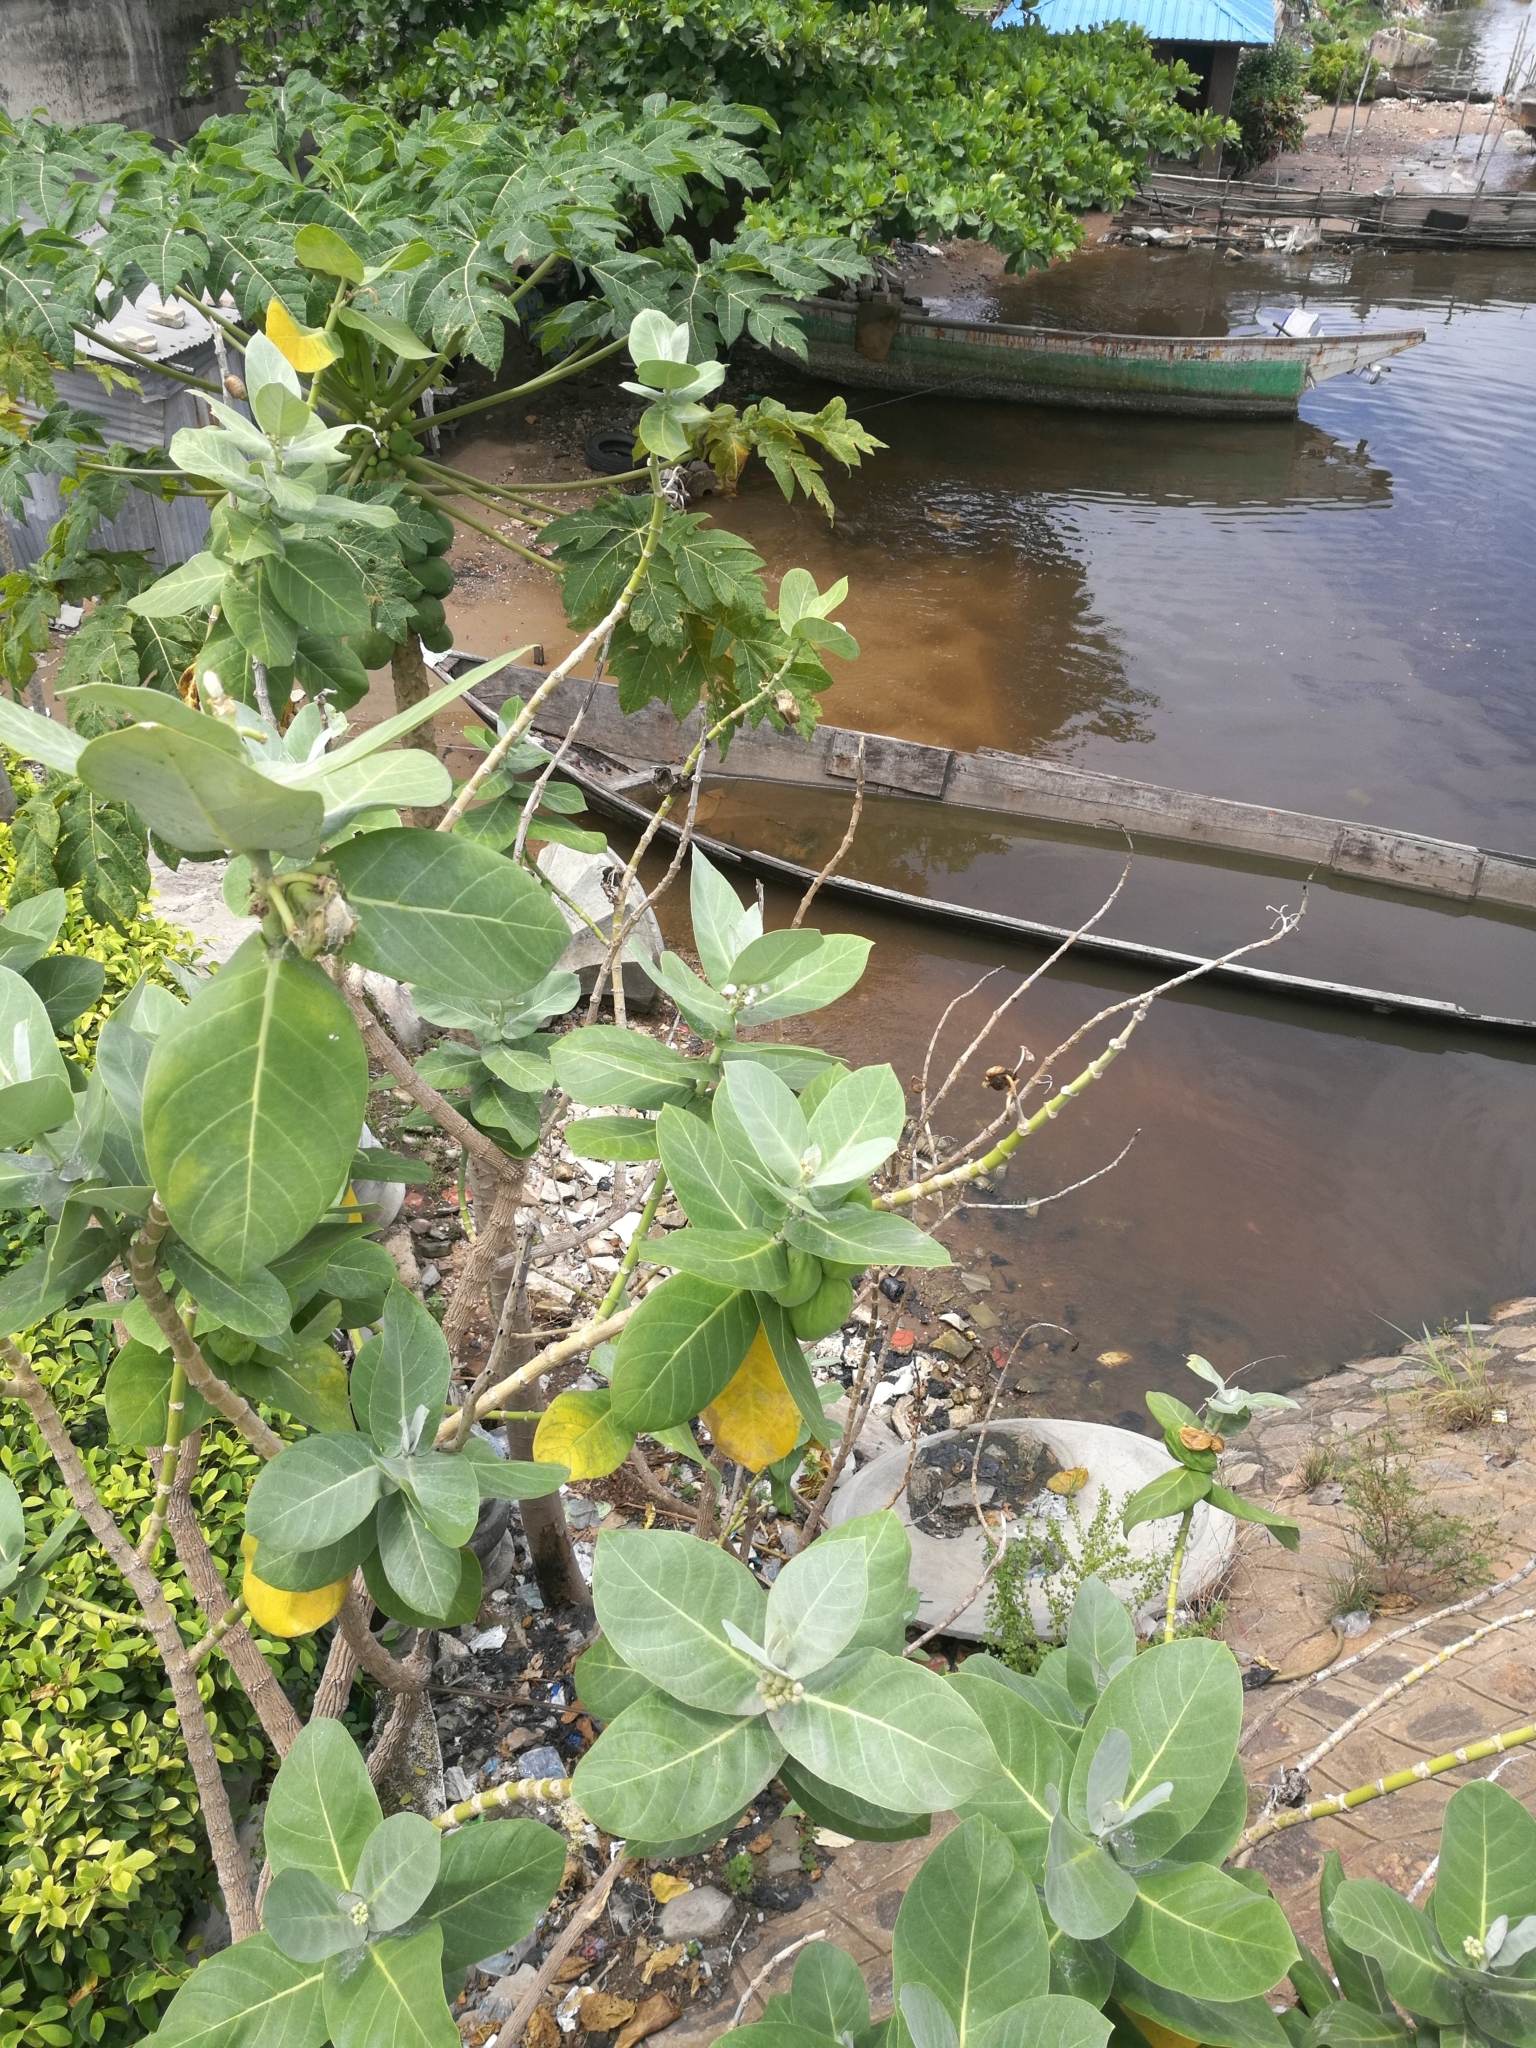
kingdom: Plantae
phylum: Tracheophyta
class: Magnoliopsida
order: Gentianales
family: Apocynaceae
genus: Calotropis
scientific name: Calotropis procera
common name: Roostertree
